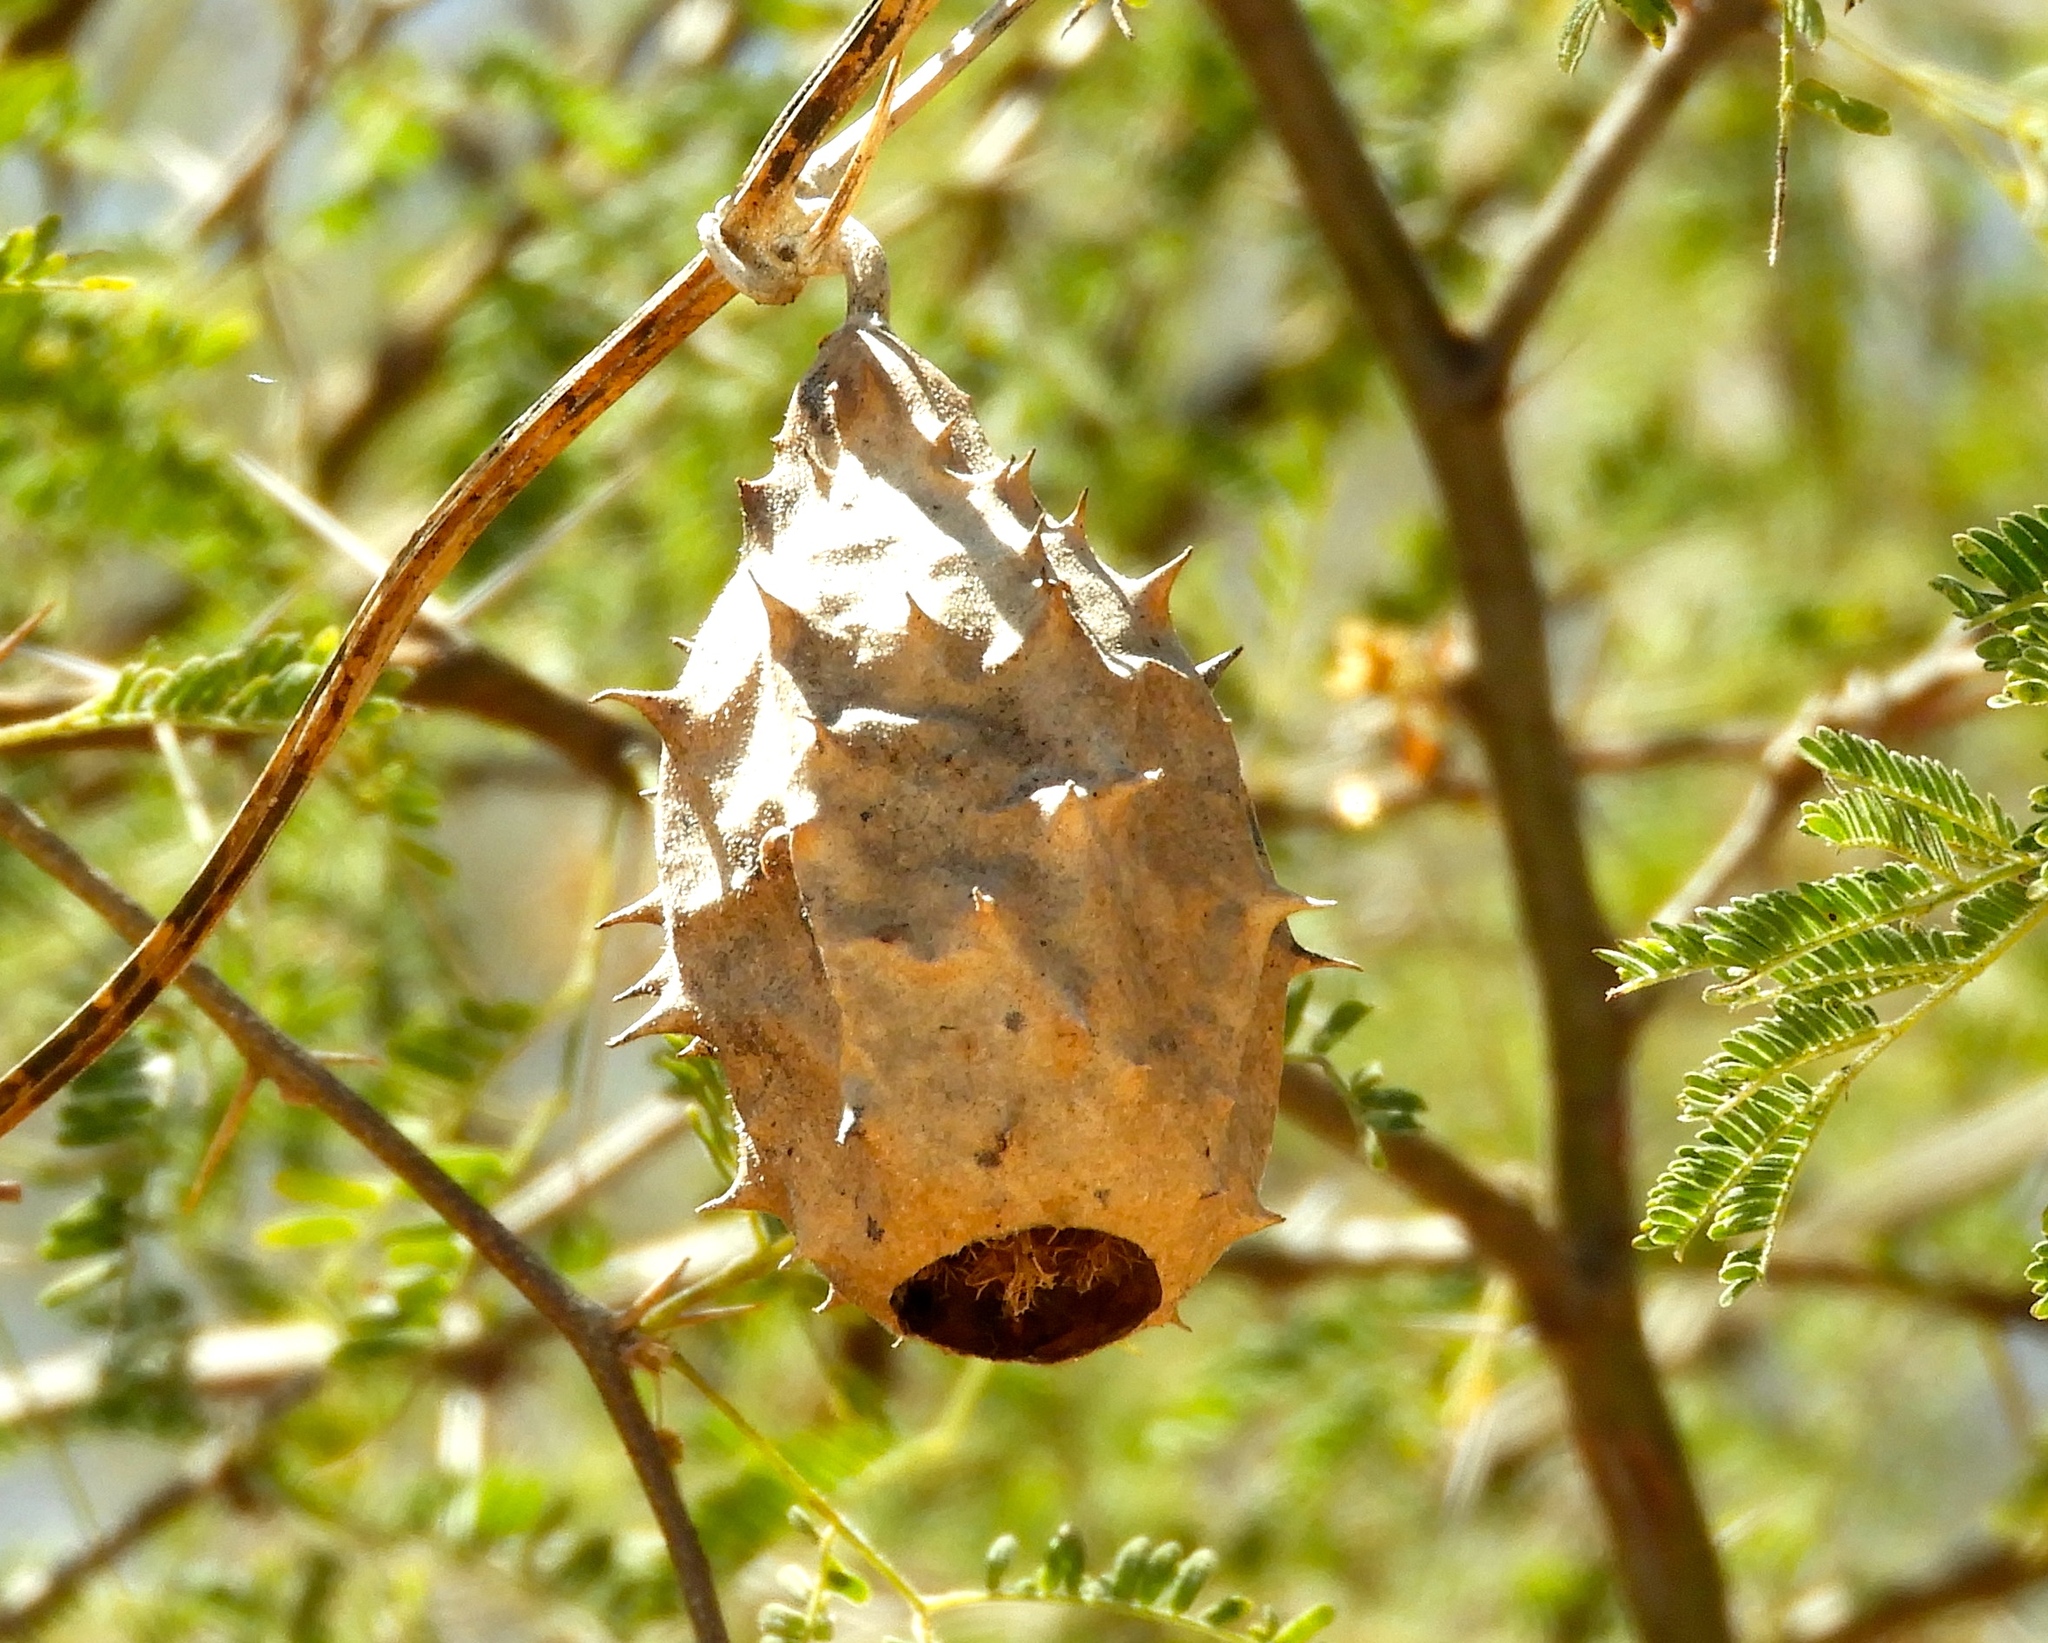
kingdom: Plantae
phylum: Tracheophyta
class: Magnoliopsida
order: Cucurbitales
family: Cucurbitaceae
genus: Luffa
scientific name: Luffa operculata
